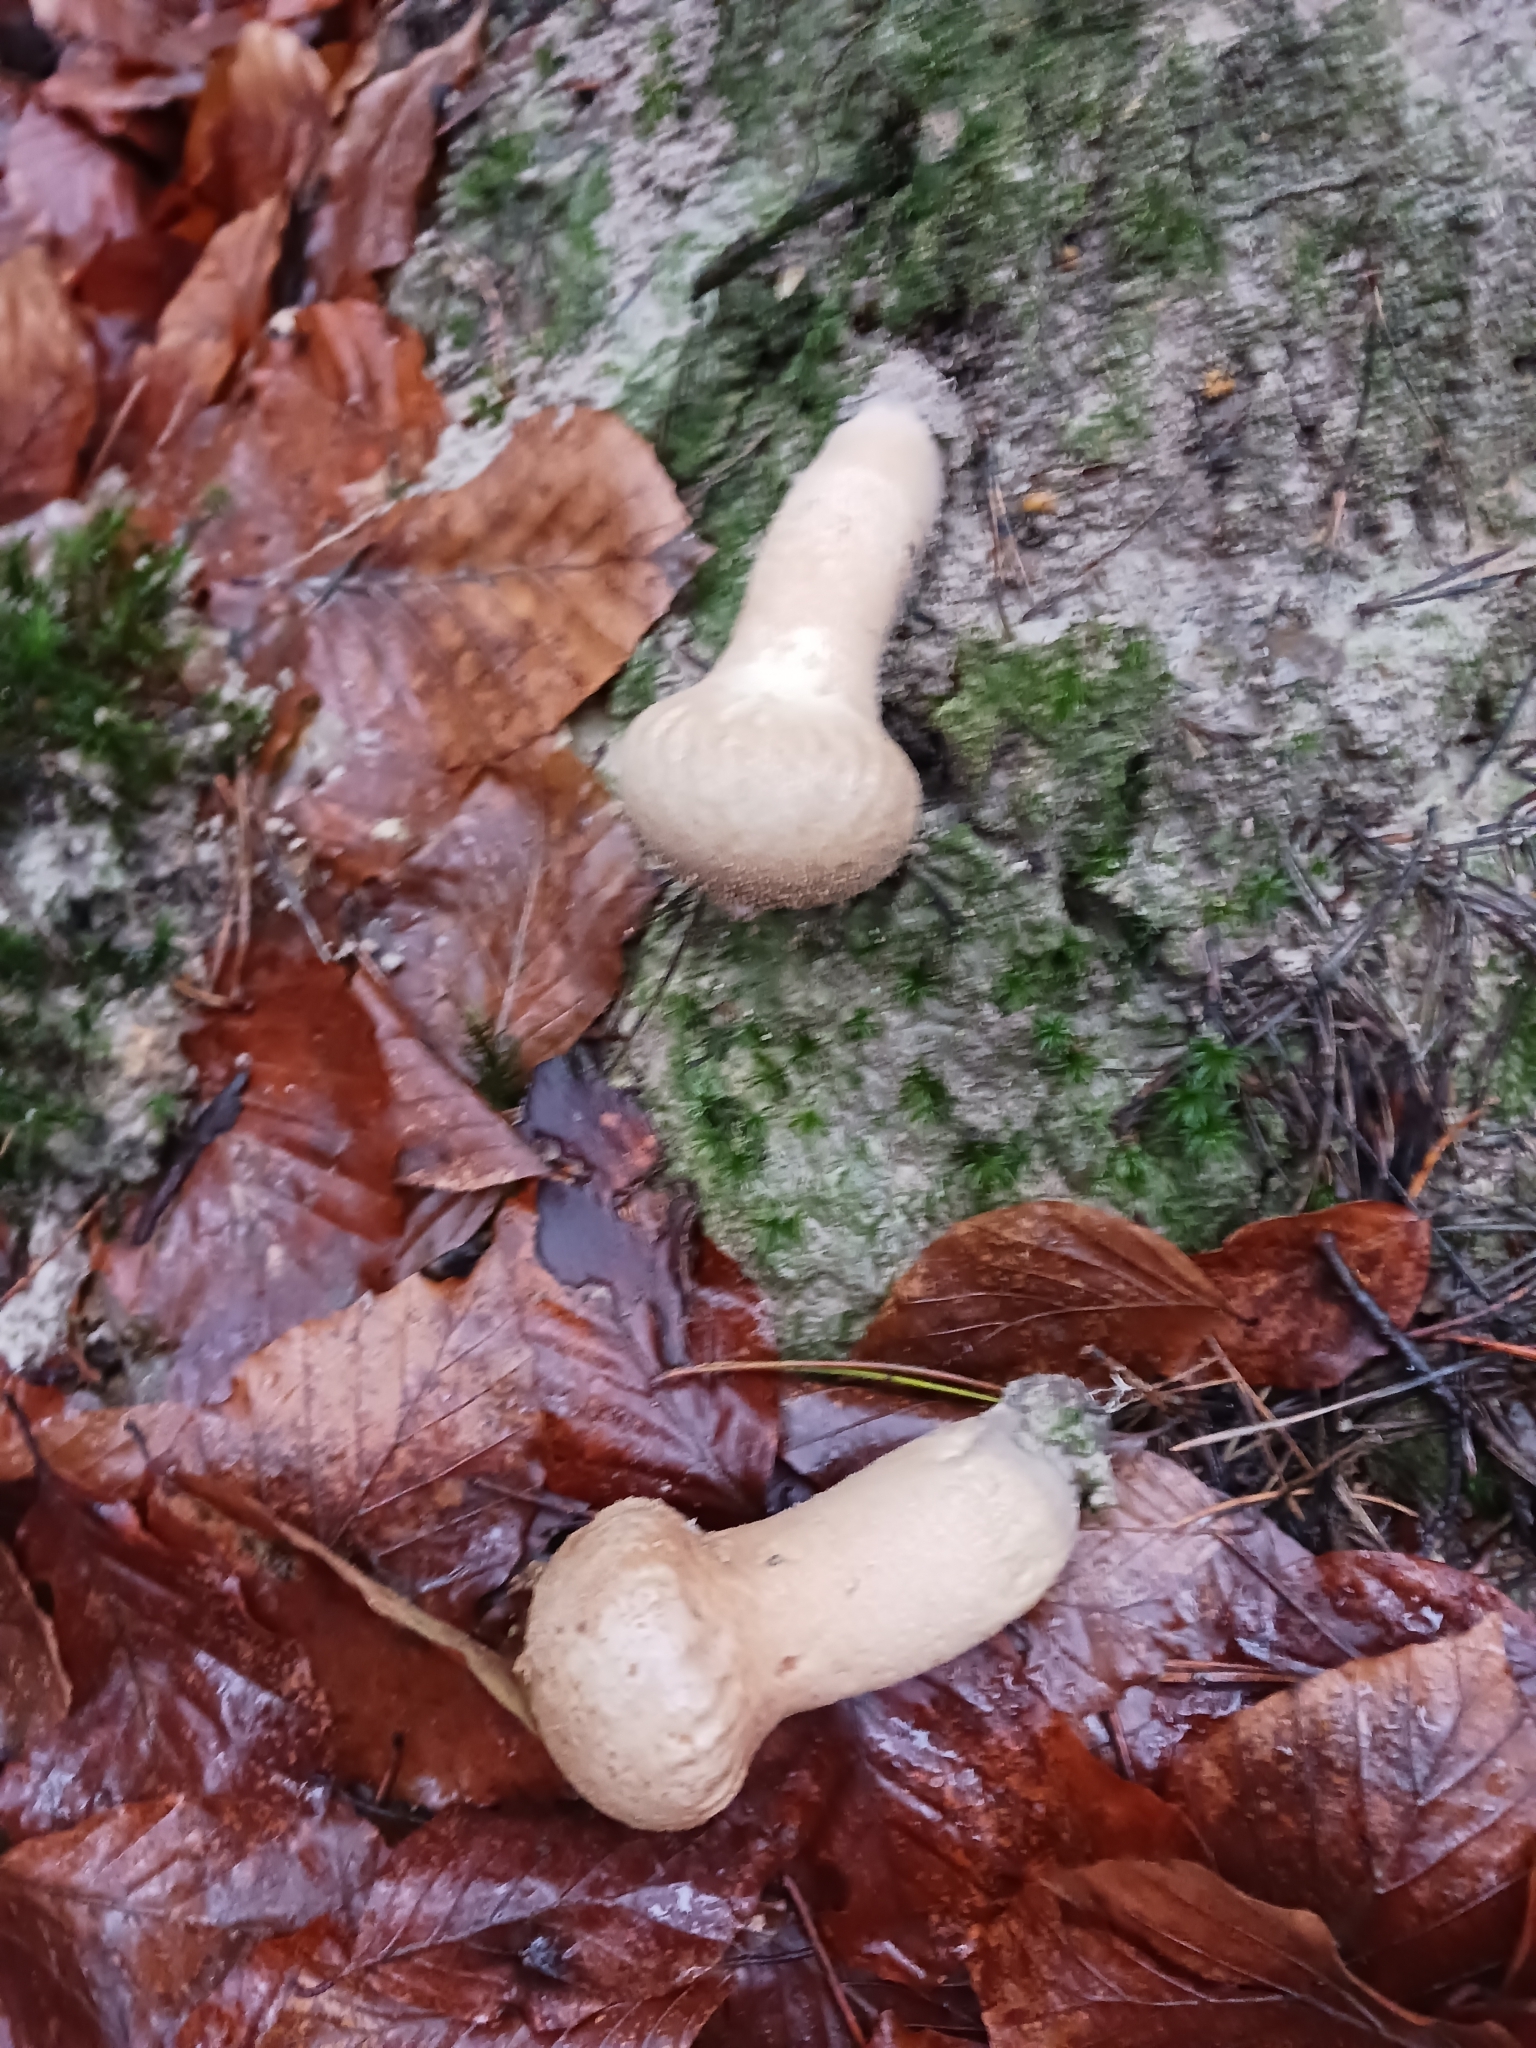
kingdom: Fungi
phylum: Basidiomycota
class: Agaricomycetes
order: Agaricales
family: Lycoperdaceae
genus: Lycoperdon
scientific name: Lycoperdon perlatum
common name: Common puffball
